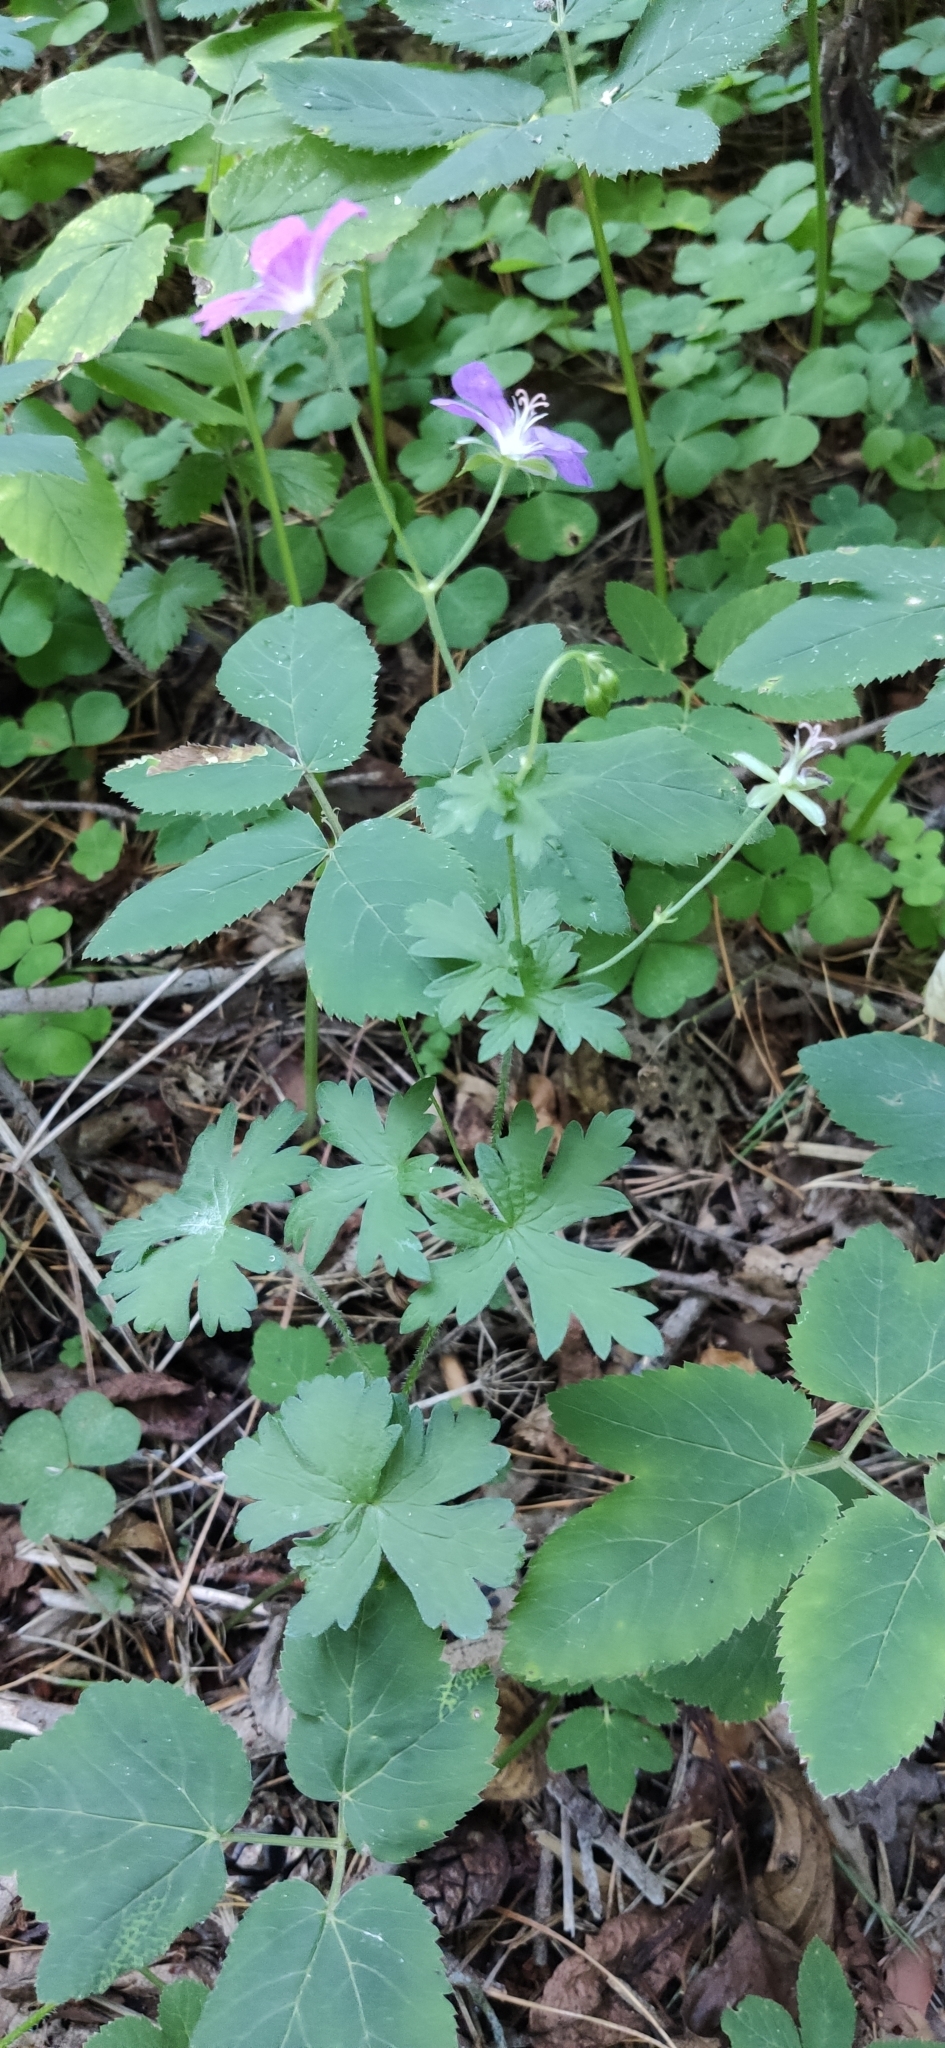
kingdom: Plantae
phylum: Tracheophyta
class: Magnoliopsida
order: Geraniales
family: Geraniaceae
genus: Geranium
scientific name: Geranium palustre
